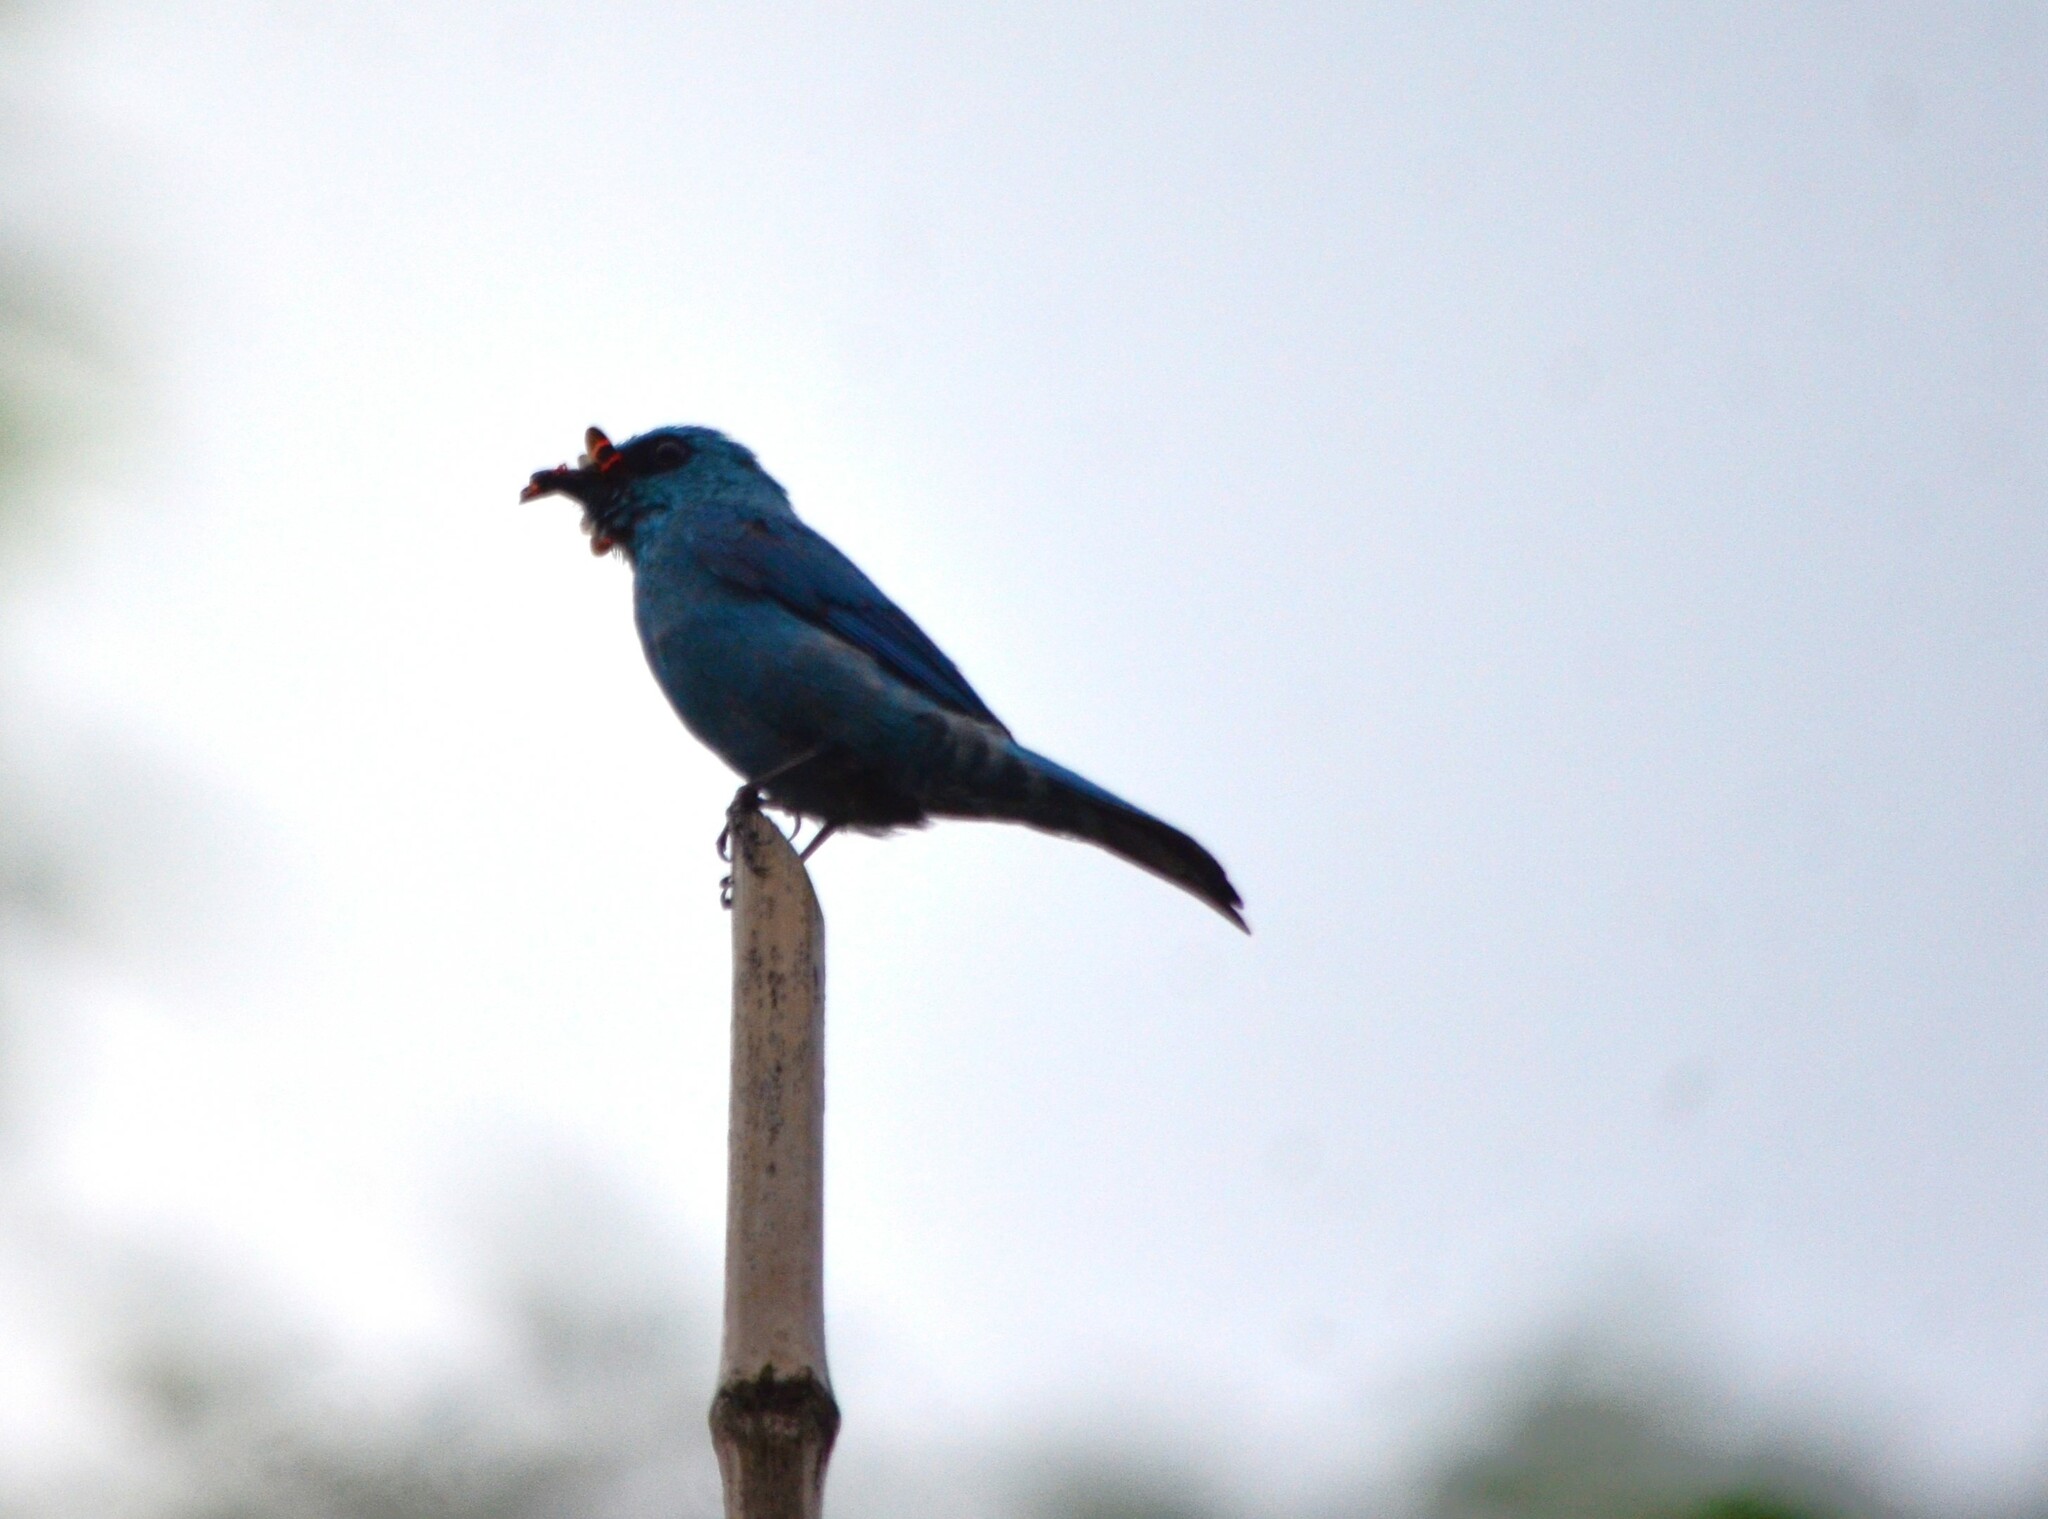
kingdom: Animalia
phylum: Chordata
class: Aves
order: Passeriformes
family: Muscicapidae
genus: Eumyias
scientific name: Eumyias thalassinus
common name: Verditer flycatcher
